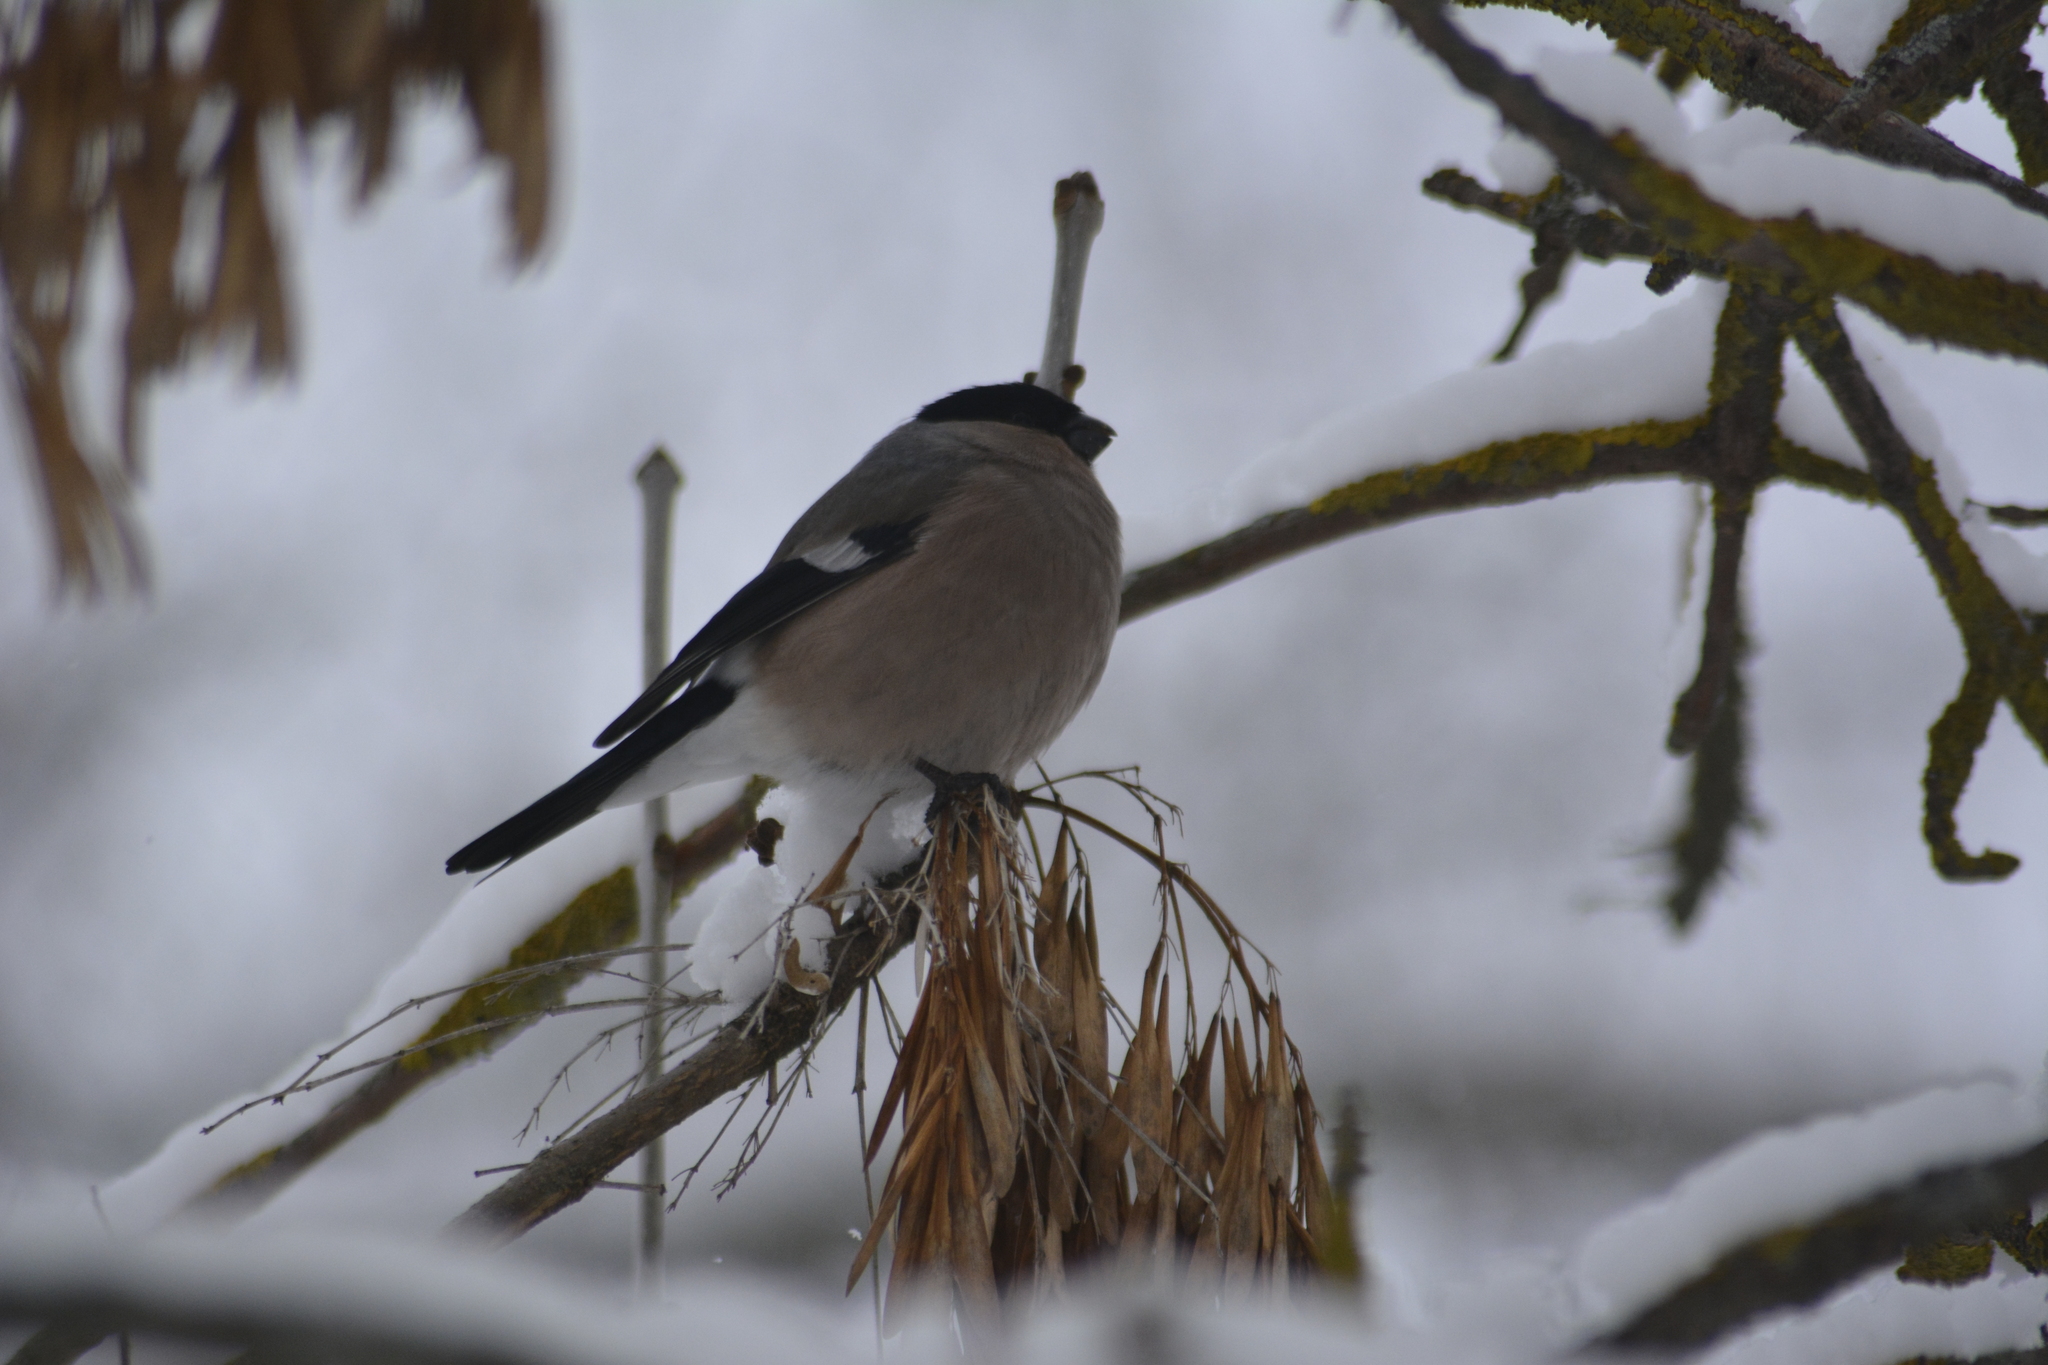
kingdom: Animalia
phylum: Chordata
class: Aves
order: Passeriformes
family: Fringillidae
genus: Pyrrhula
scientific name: Pyrrhula pyrrhula
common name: Eurasian bullfinch
